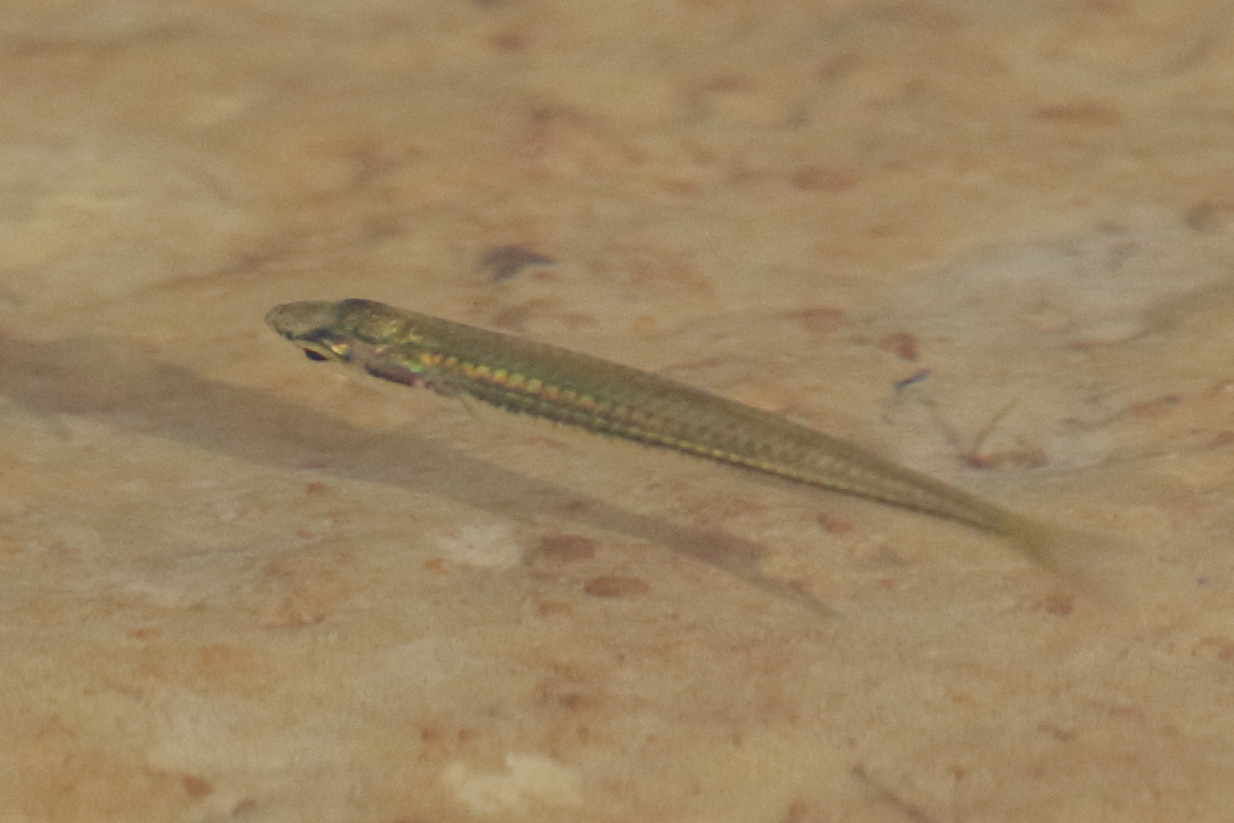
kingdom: Animalia
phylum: Chordata
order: Atheriniformes
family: Atherinidae
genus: Craterocephalus
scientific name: Craterocephalus stercusmuscarum
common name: Fly-specked hardyhead
